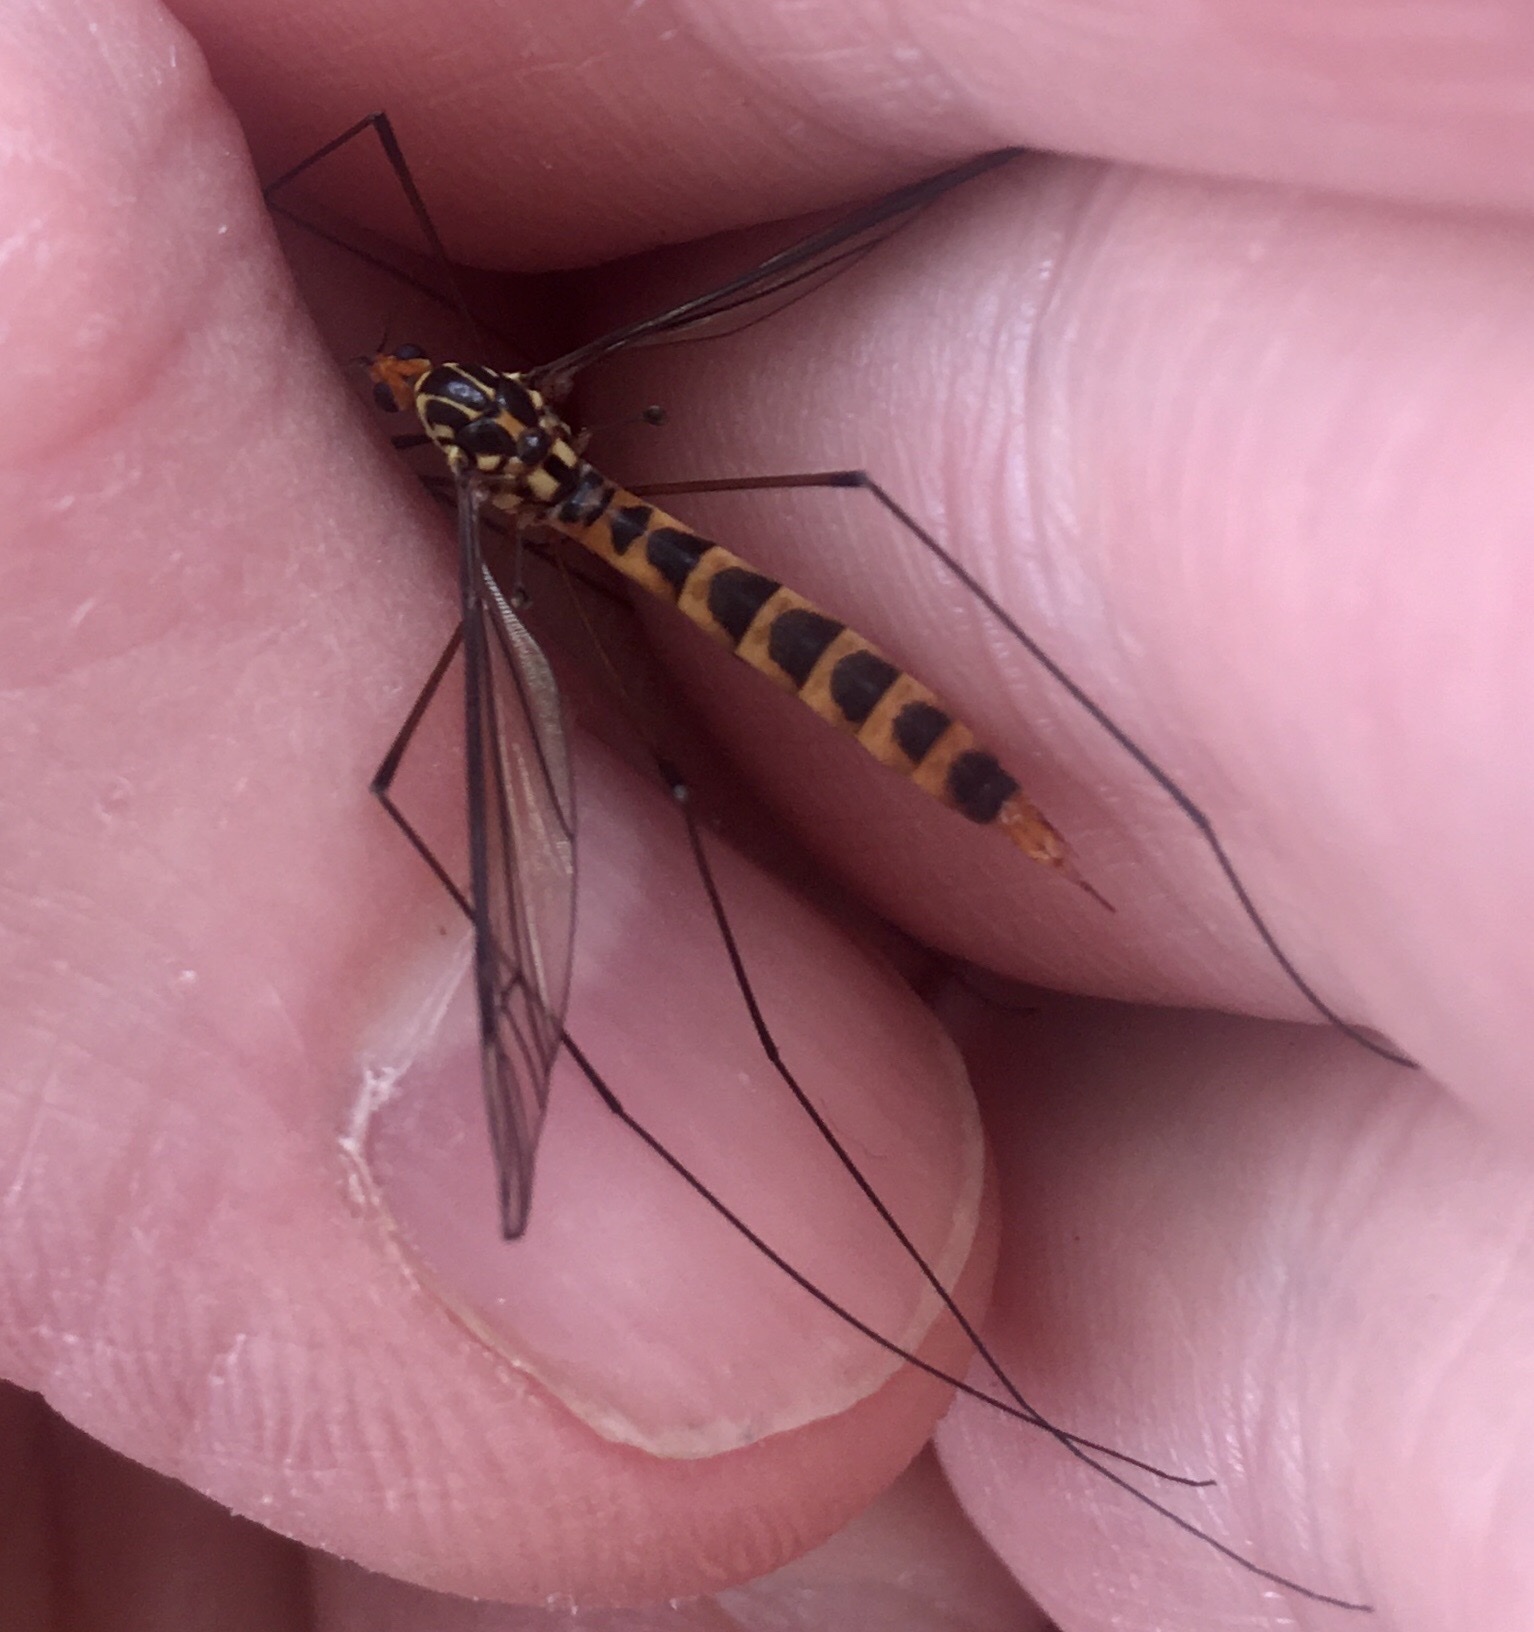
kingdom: Animalia
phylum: Arthropoda
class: Insecta
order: Diptera
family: Tipulidae
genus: Nephrotoma
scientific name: Nephrotoma flavipalpis
